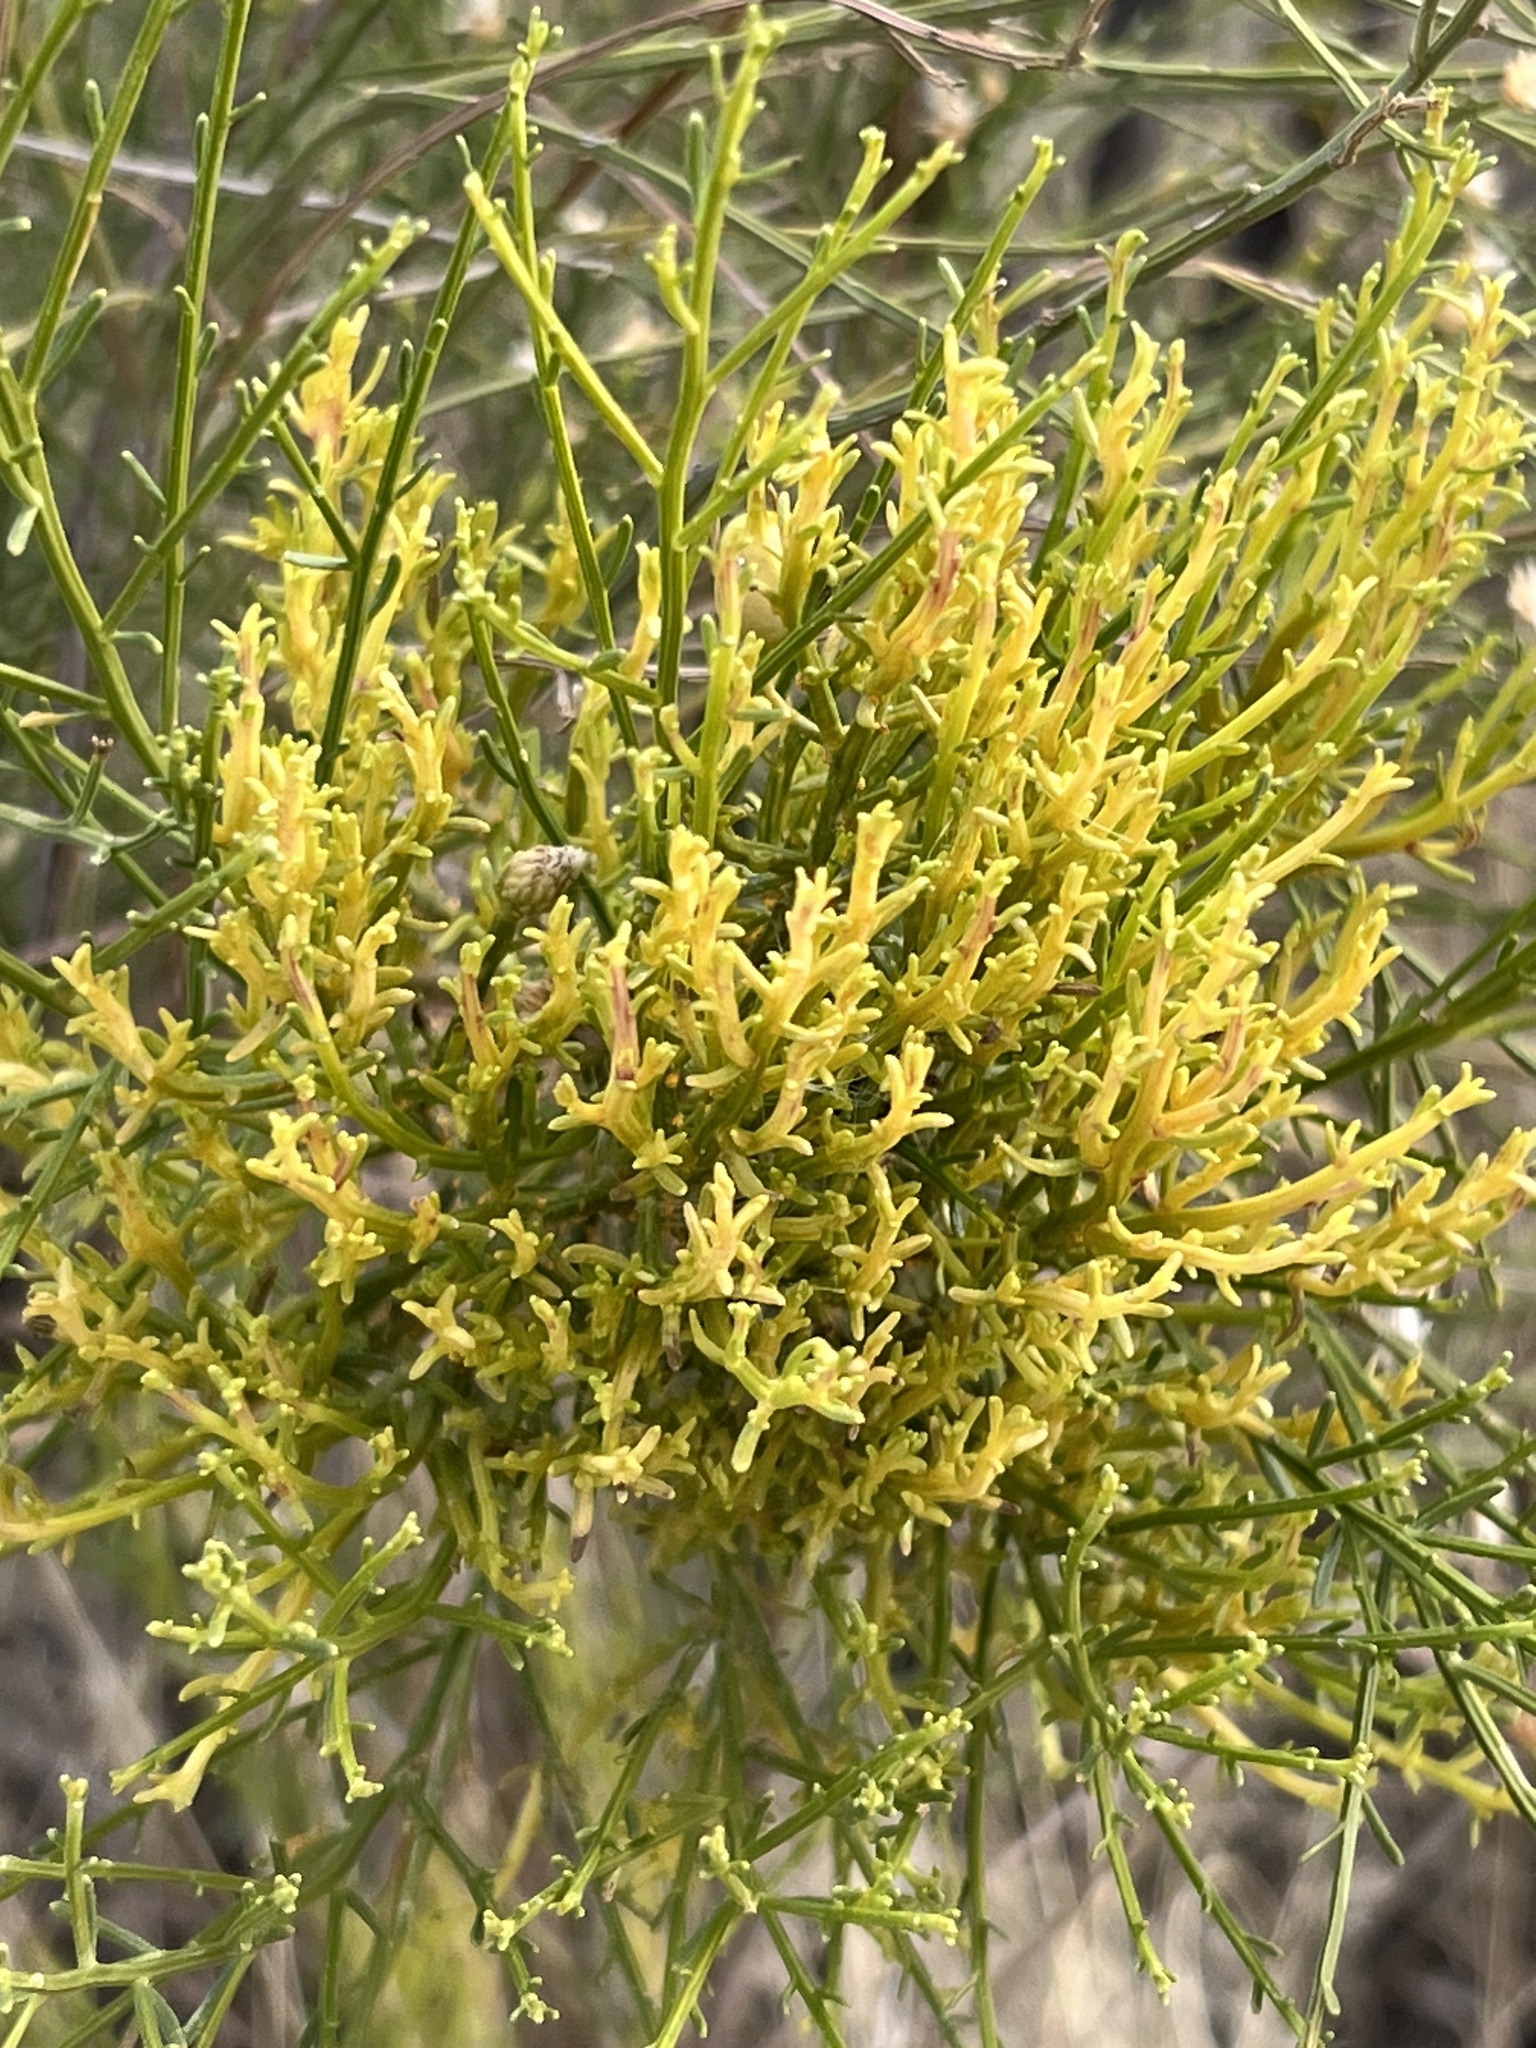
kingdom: Plantae
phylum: Tracheophyta
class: Magnoliopsida
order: Asterales
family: Asteraceae
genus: Baccharis
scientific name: Baccharis sarothroides
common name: Desert-broom
